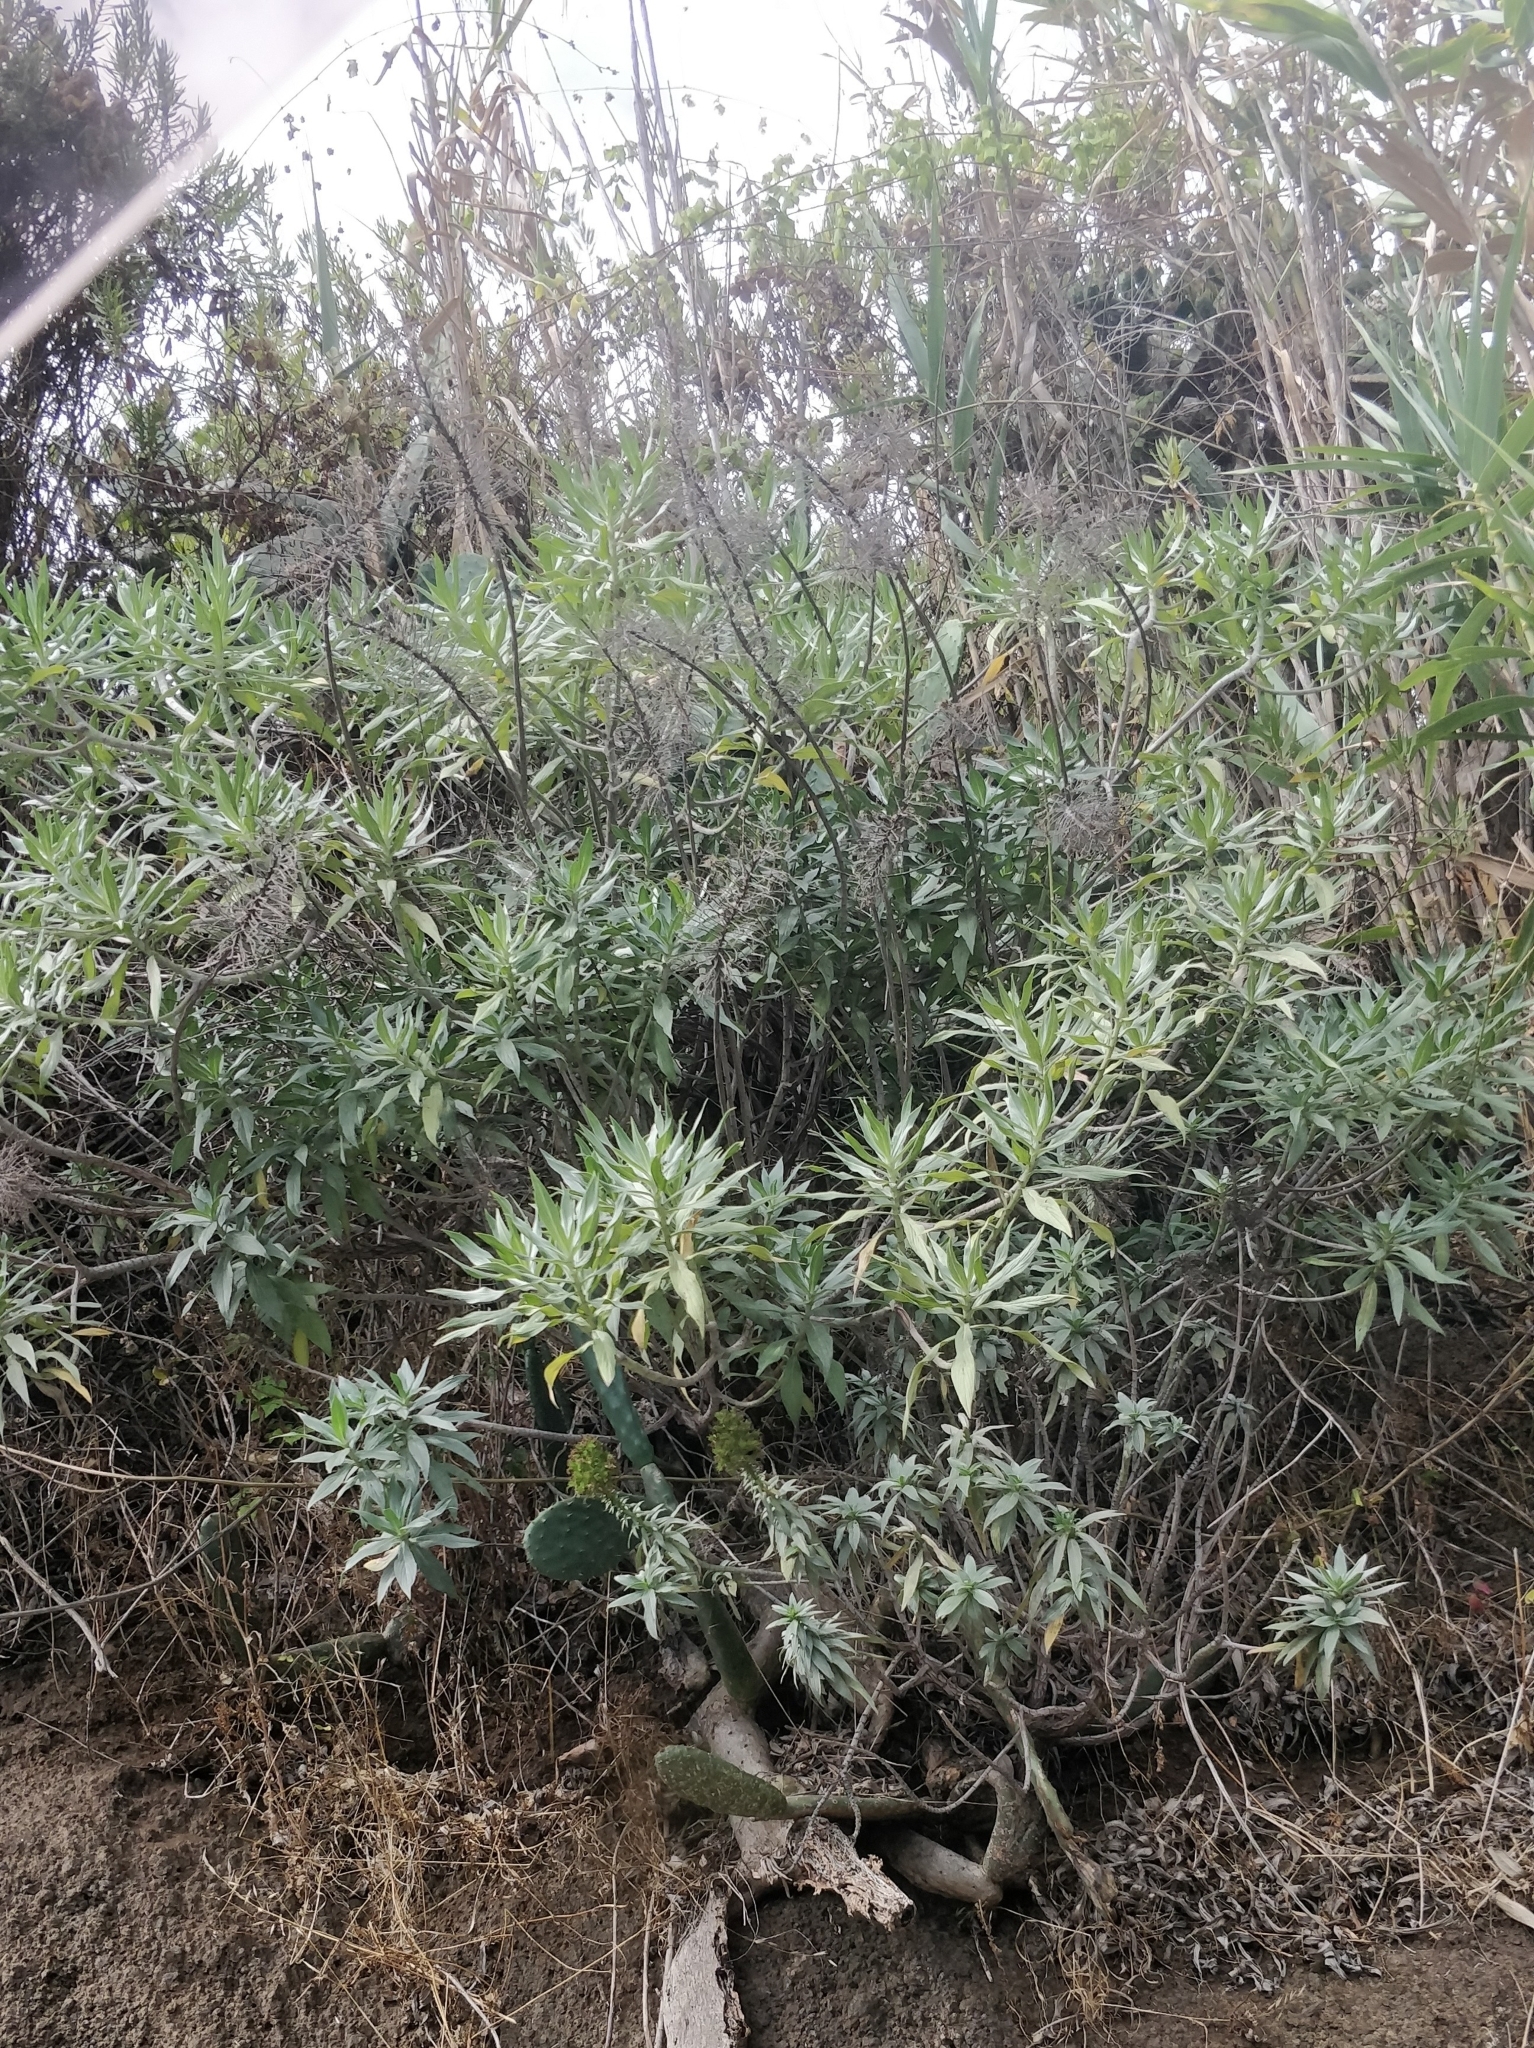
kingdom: Plantae
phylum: Tracheophyta
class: Magnoliopsida
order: Boraginales
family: Boraginaceae
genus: Echium
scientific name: Echium nervosum
